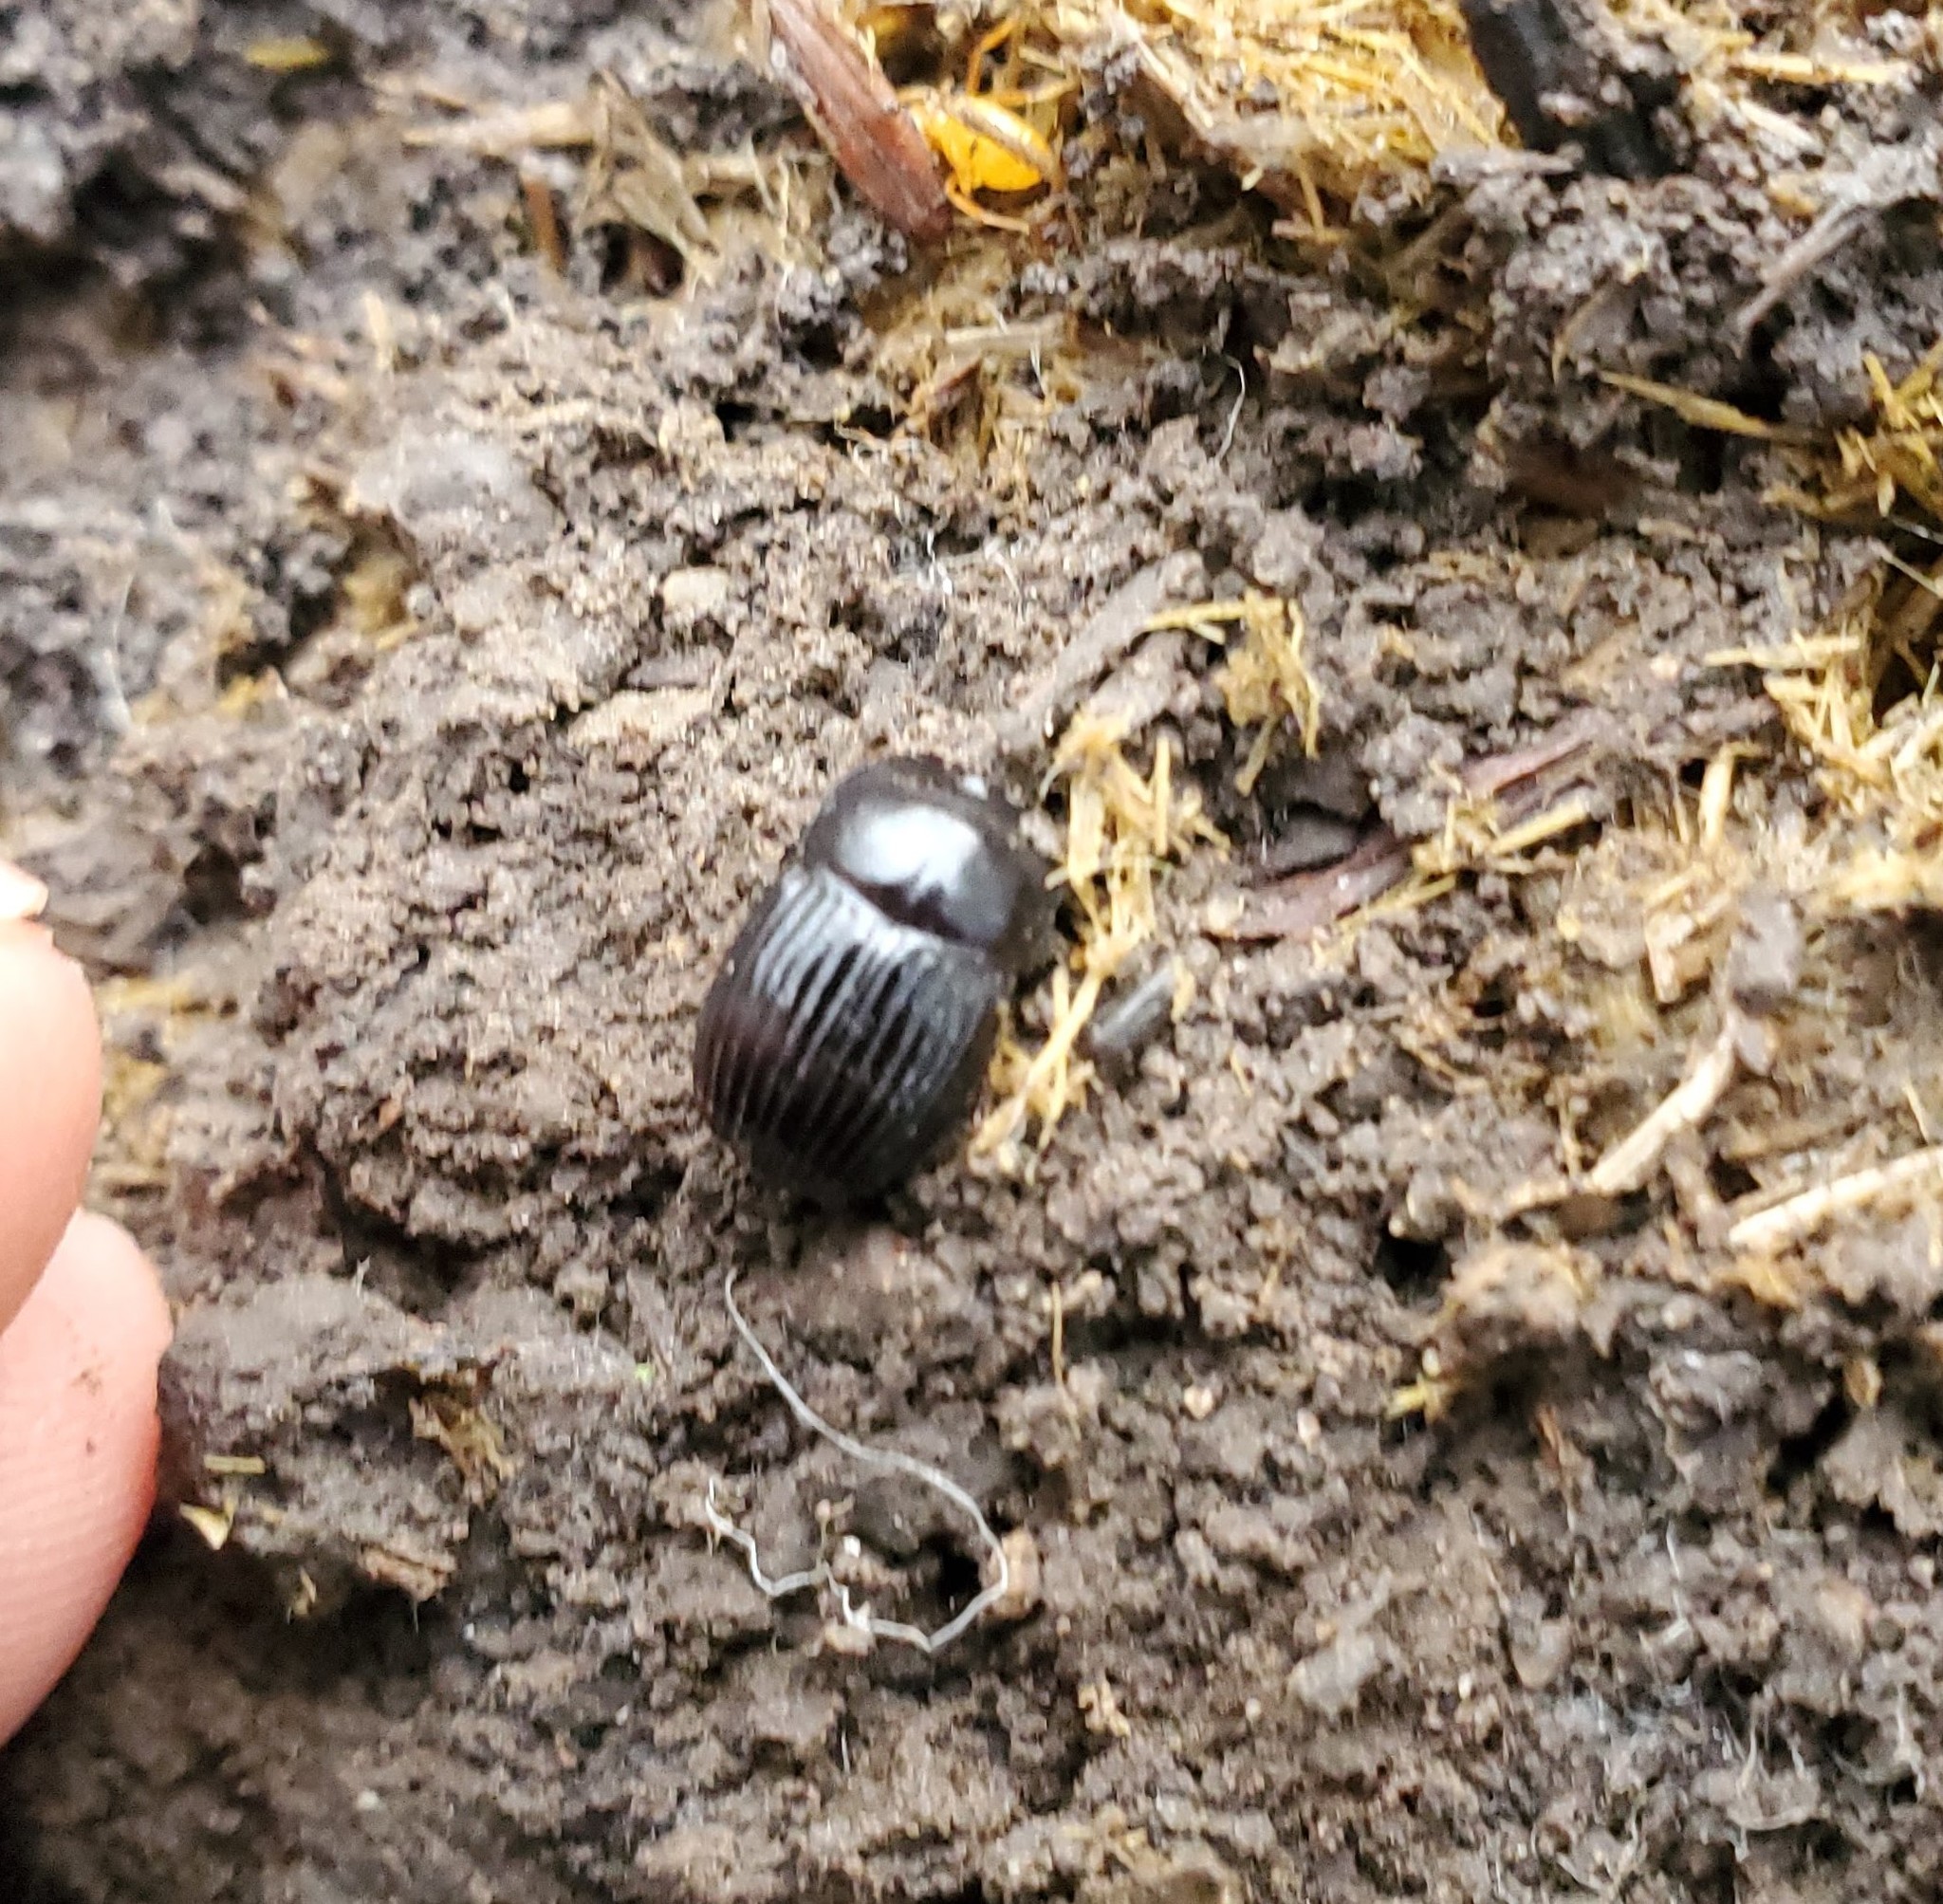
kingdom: Animalia
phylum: Arthropoda
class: Insecta
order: Coleoptera
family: Scarabaeidae
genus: Copris
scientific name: Copris minutus
